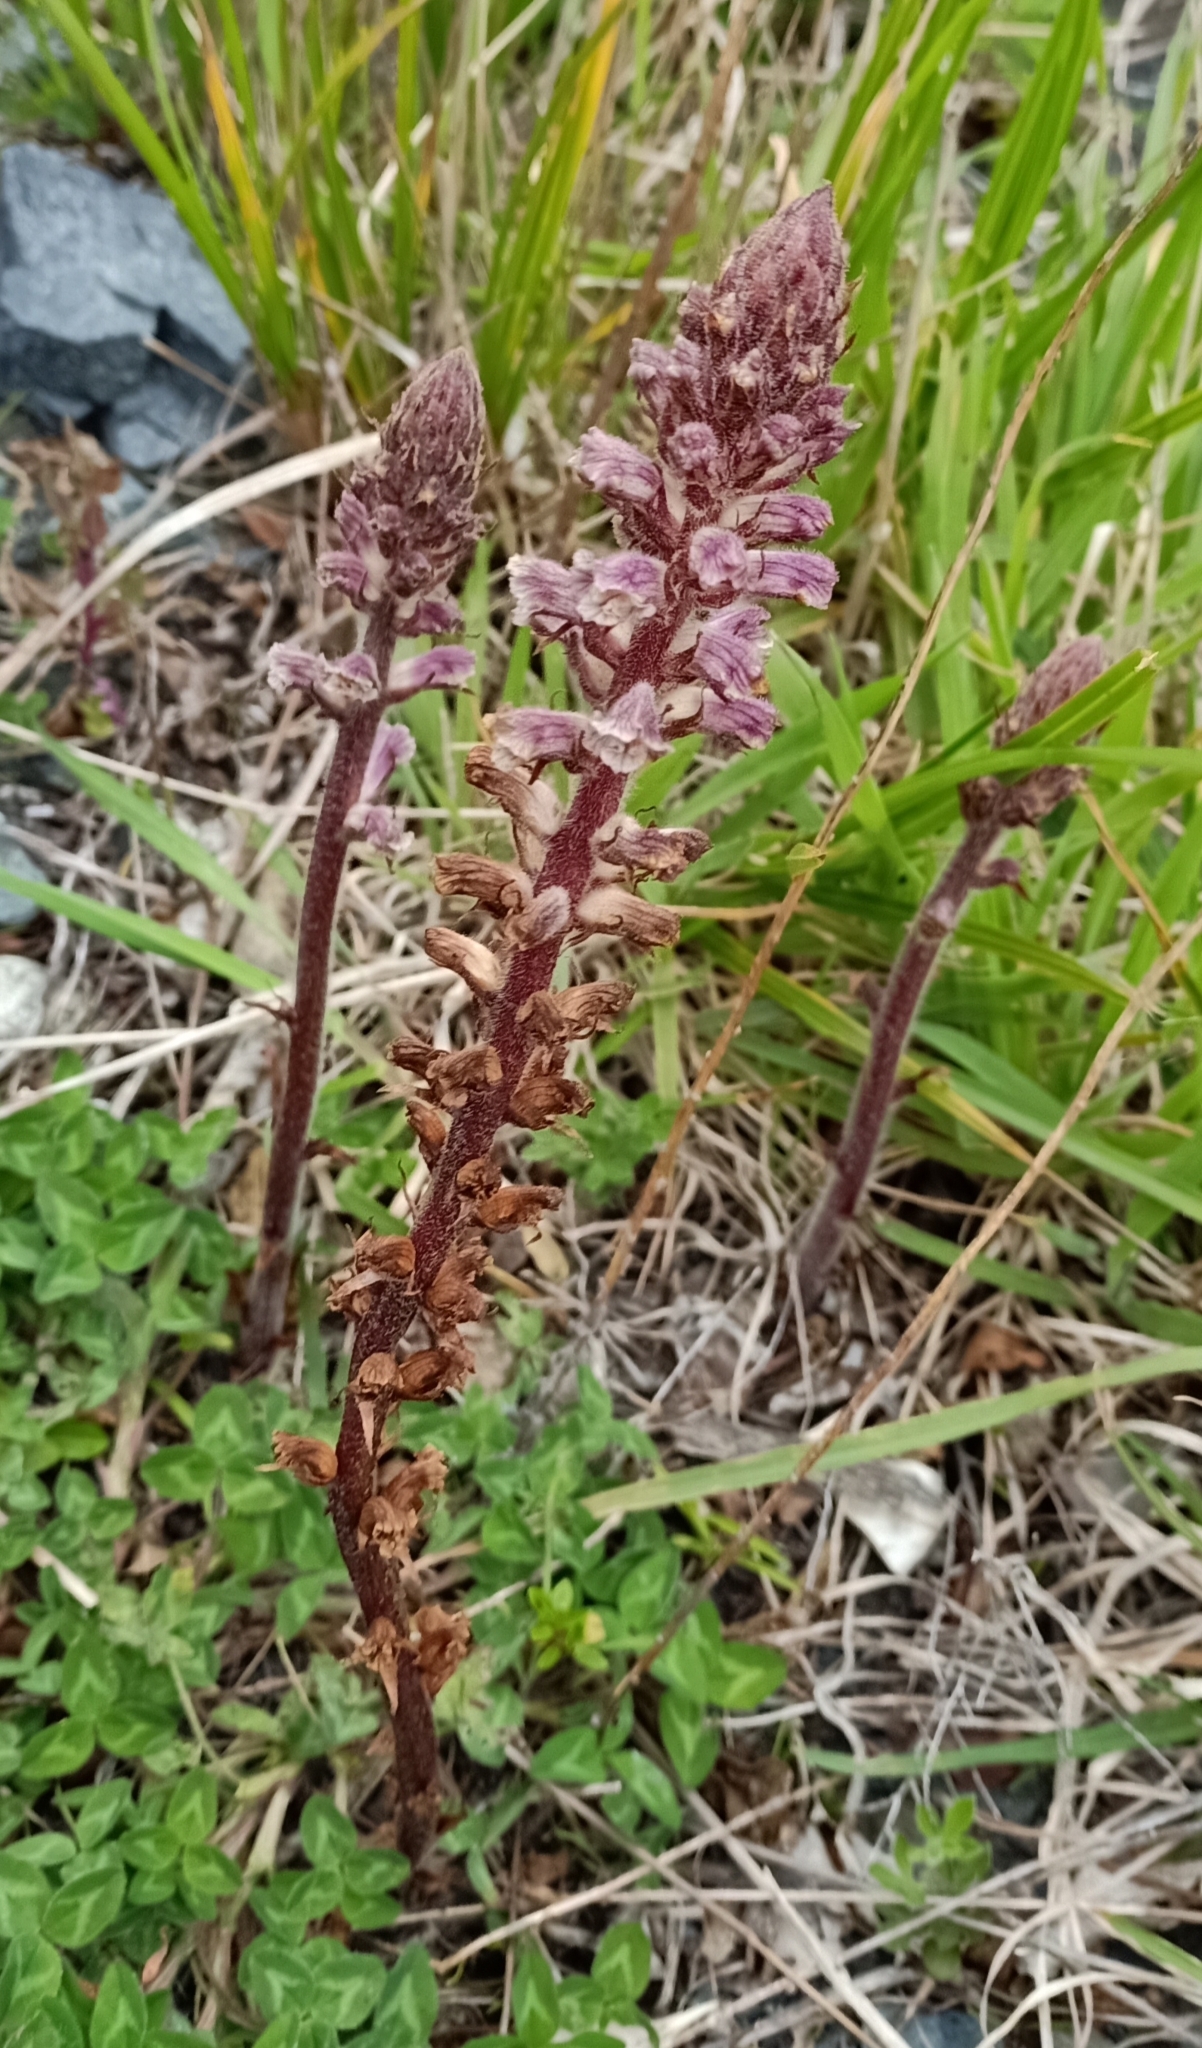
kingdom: Plantae
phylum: Tracheophyta
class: Magnoliopsida
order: Lamiales
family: Orobanchaceae
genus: Orobanche
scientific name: Orobanche minor
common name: Common broomrape
